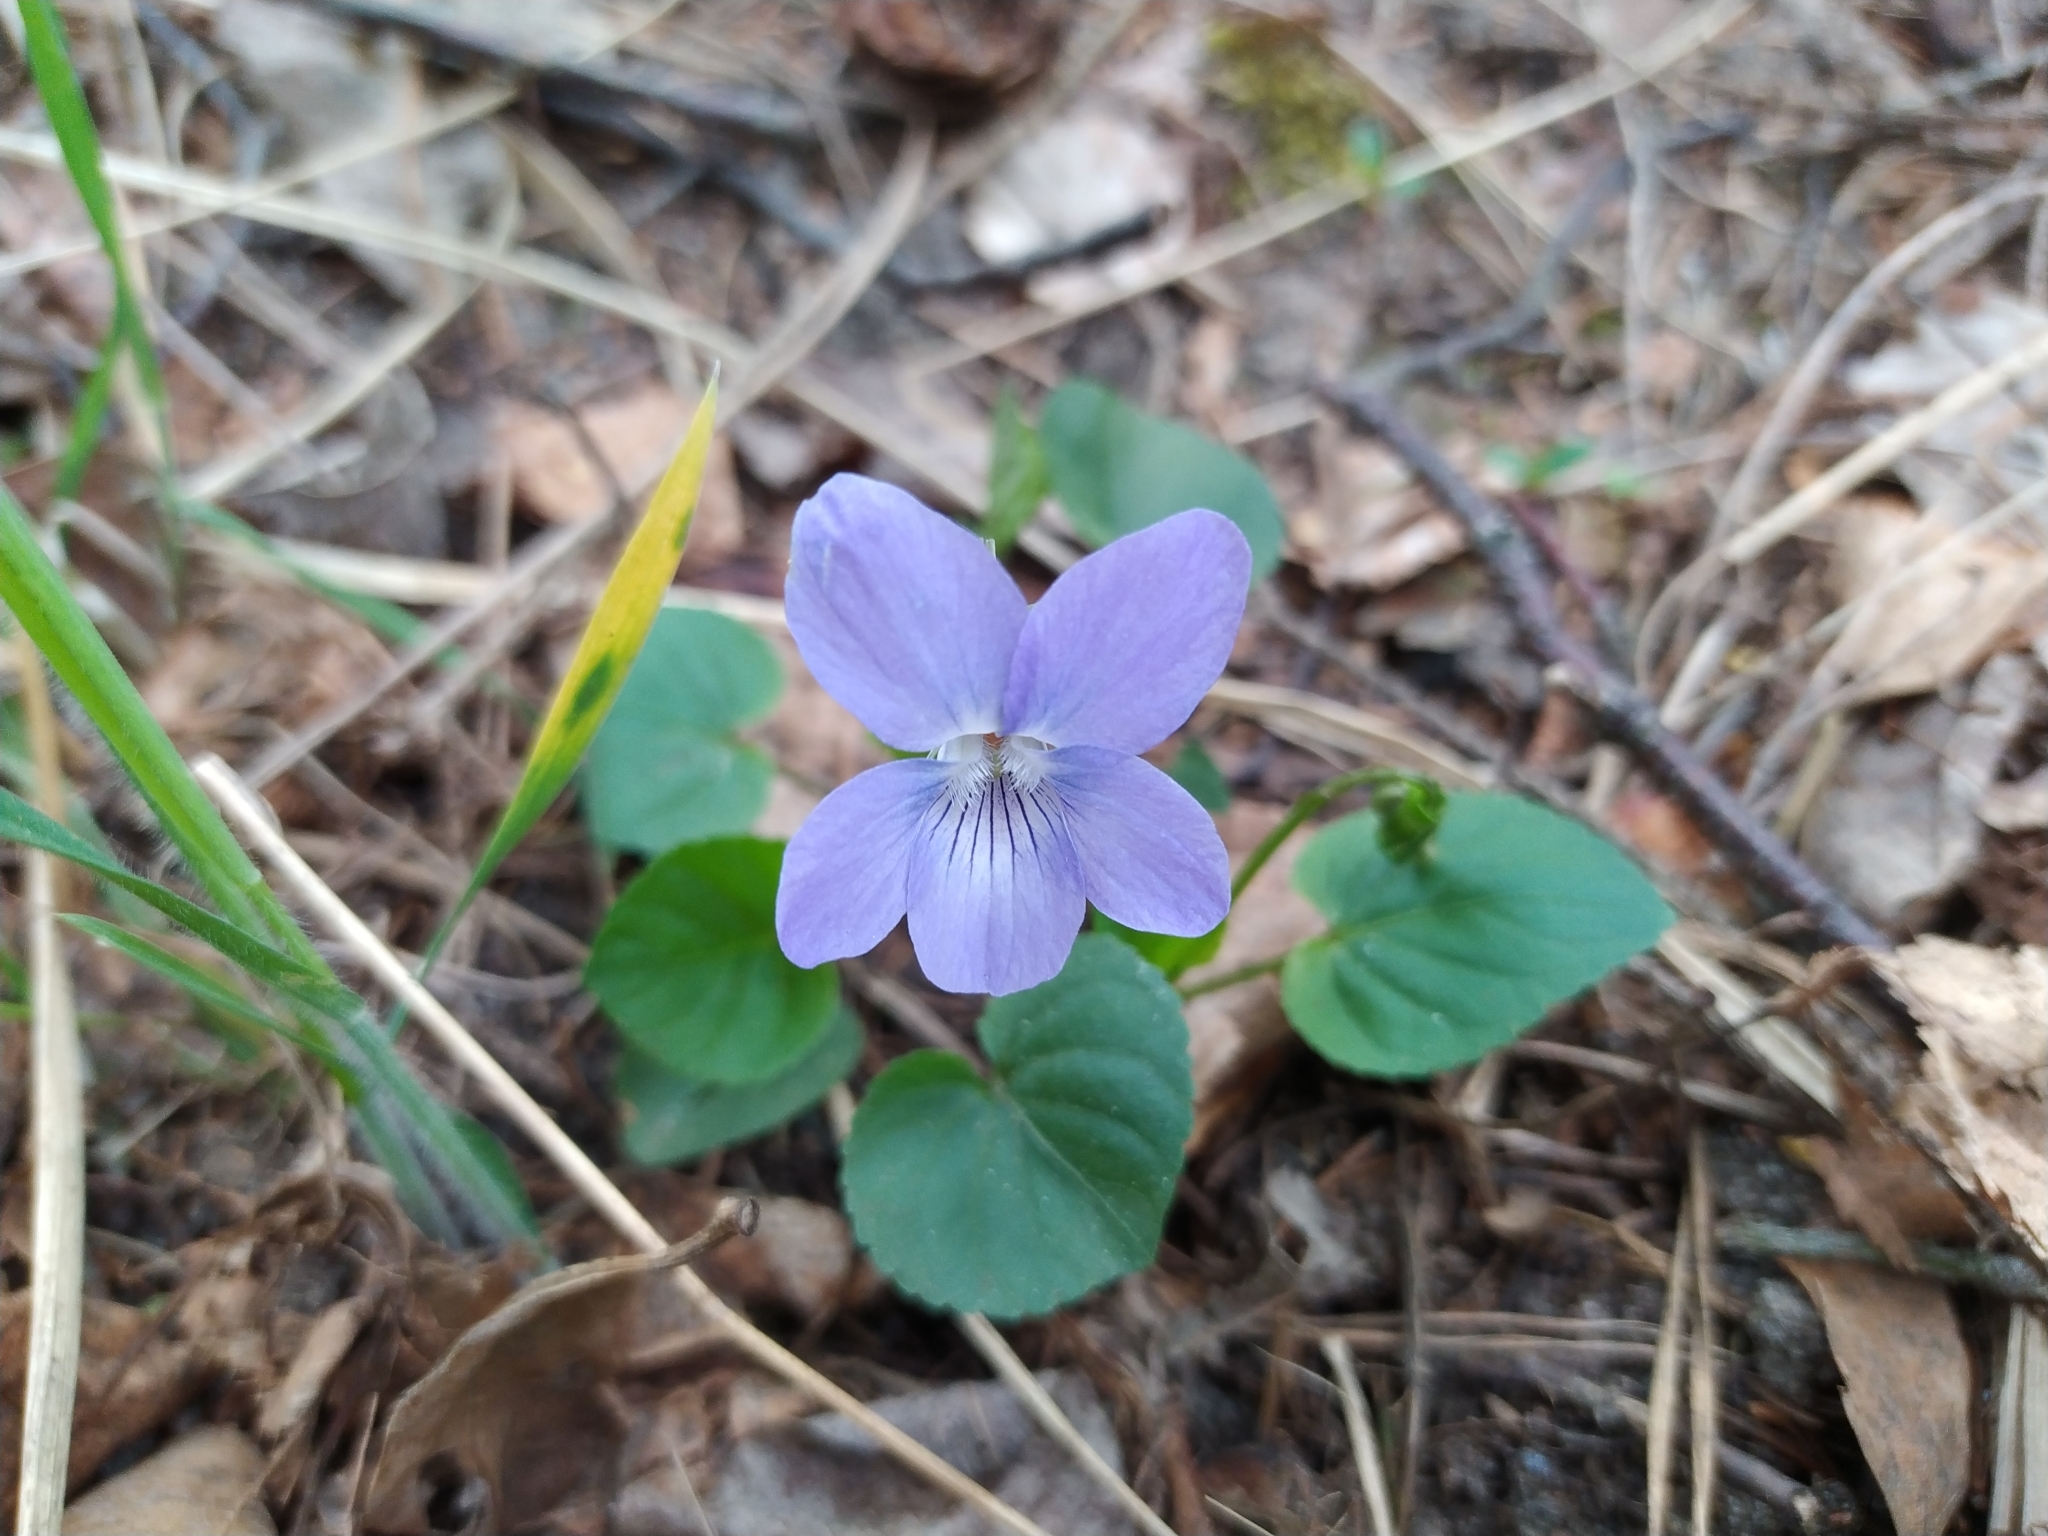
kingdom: Plantae
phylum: Tracheophyta
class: Magnoliopsida
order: Malpighiales
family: Violaceae
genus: Viola
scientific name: Viola riviniana
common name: Common dog-violet
